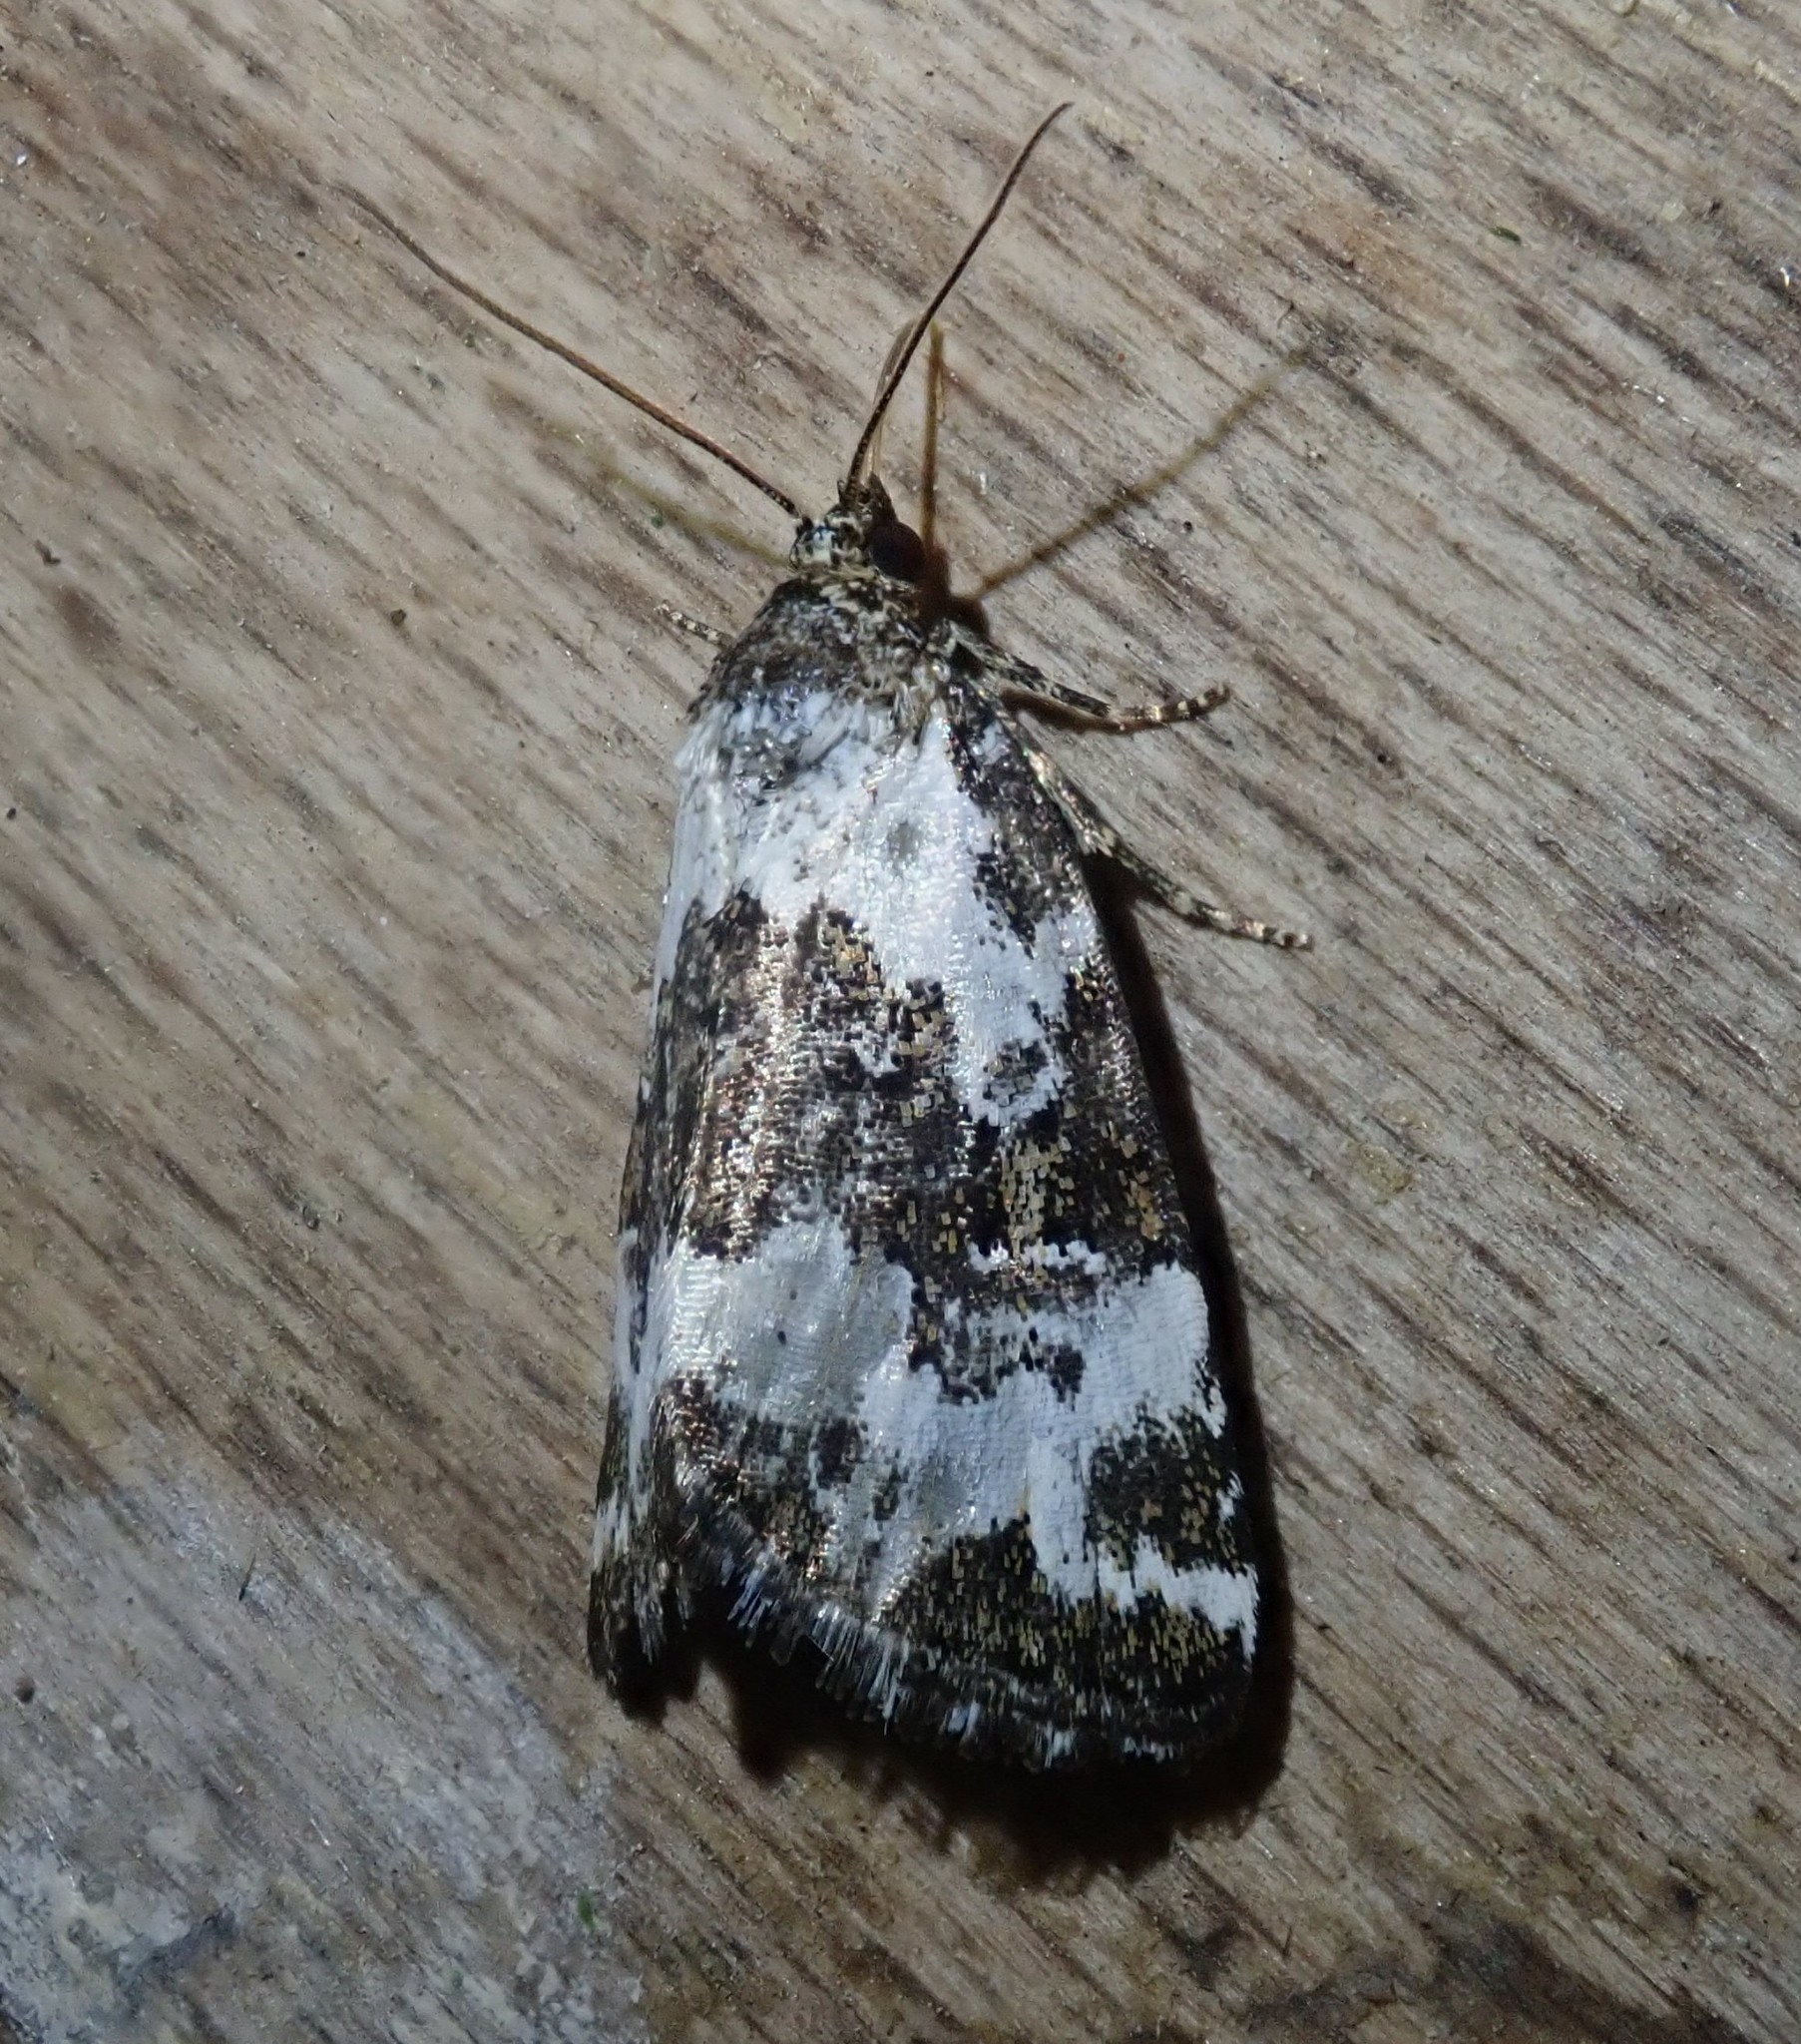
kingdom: Animalia
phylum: Arthropoda
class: Insecta
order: Lepidoptera
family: Noctuidae
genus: Deltote
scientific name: Deltote deceptoria
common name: Pretty marbled
